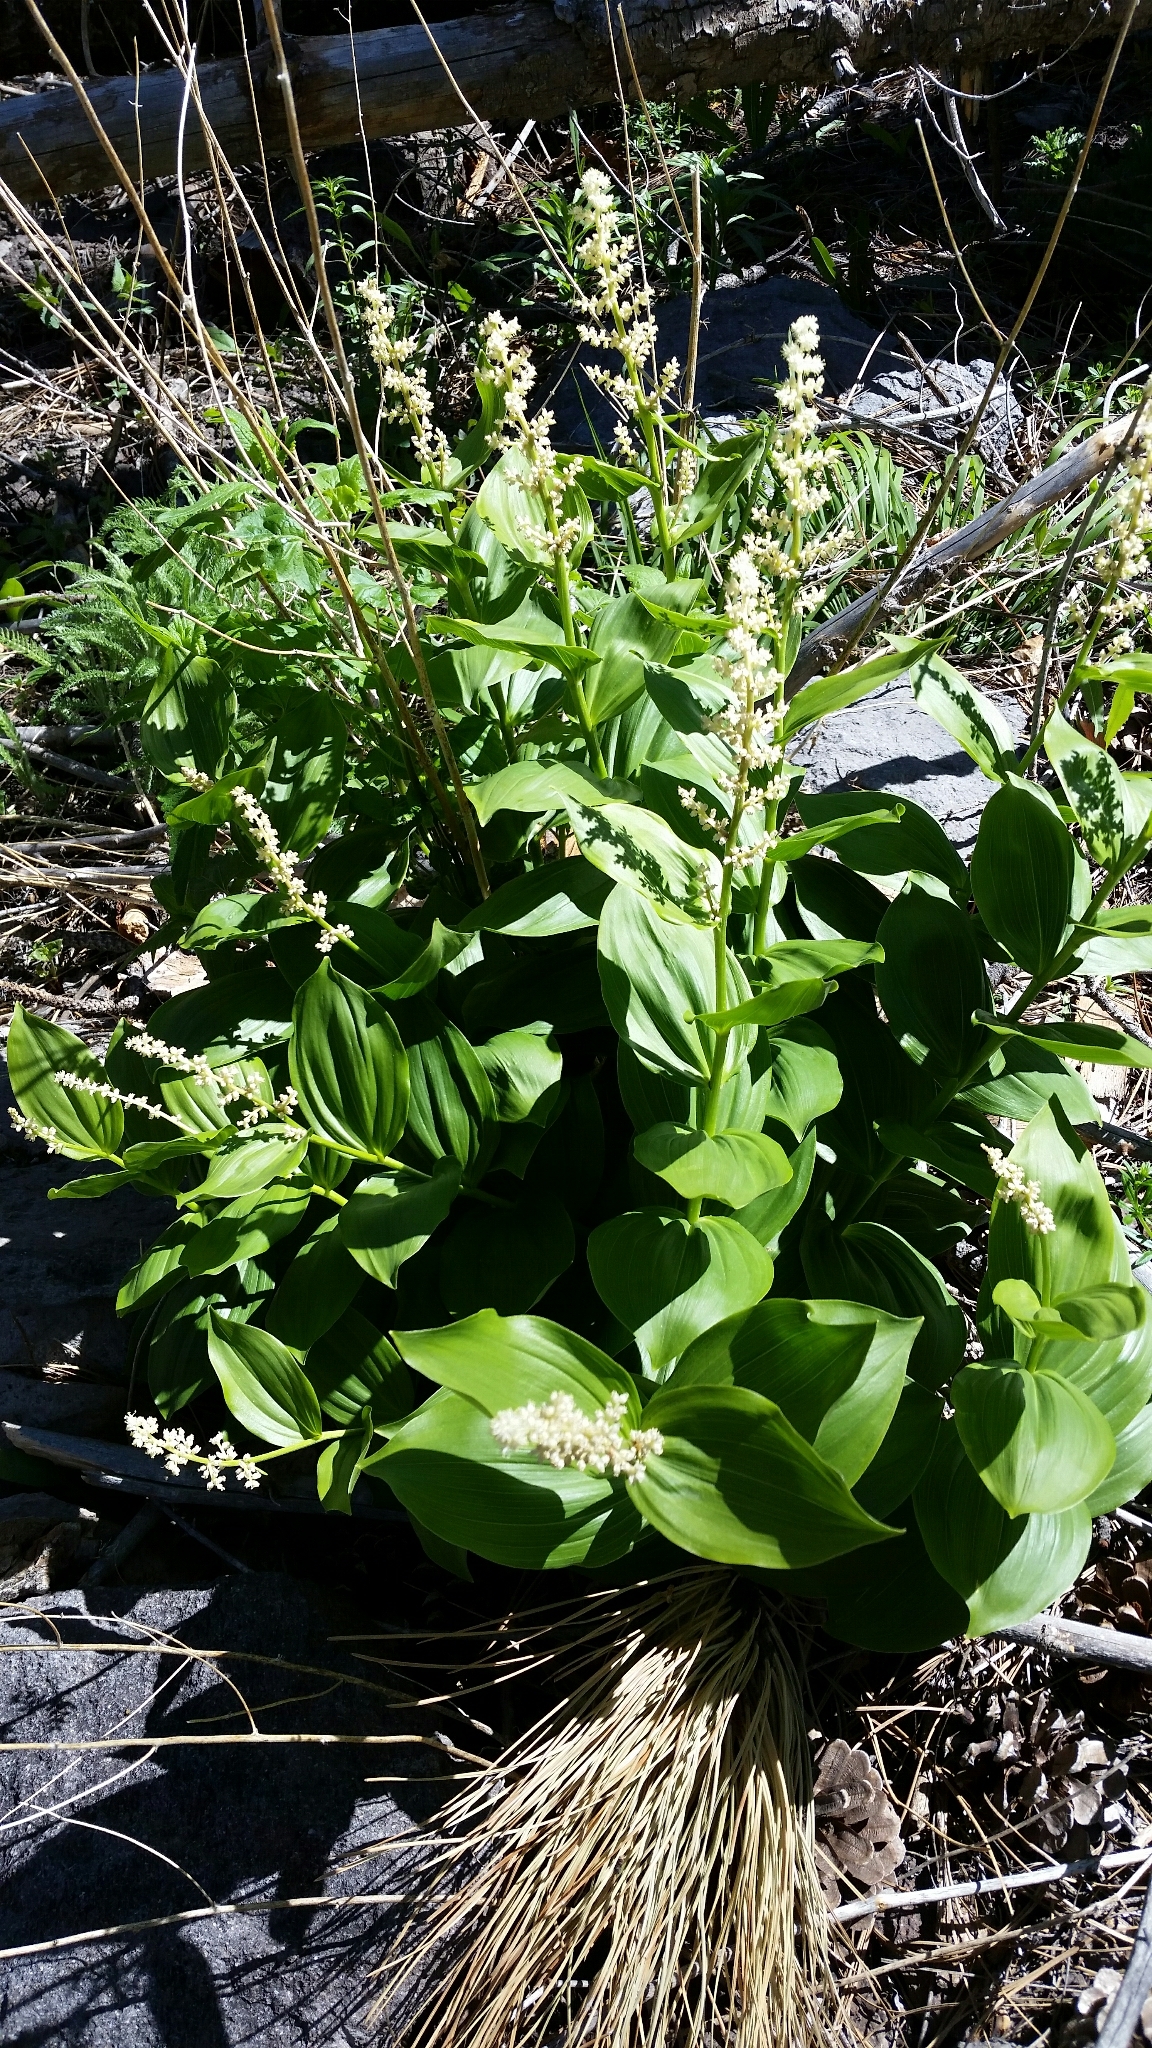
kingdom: Plantae
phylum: Tracheophyta
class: Liliopsida
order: Asparagales
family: Asparagaceae
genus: Maianthemum
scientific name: Maianthemum racemosum
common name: False spikenard
